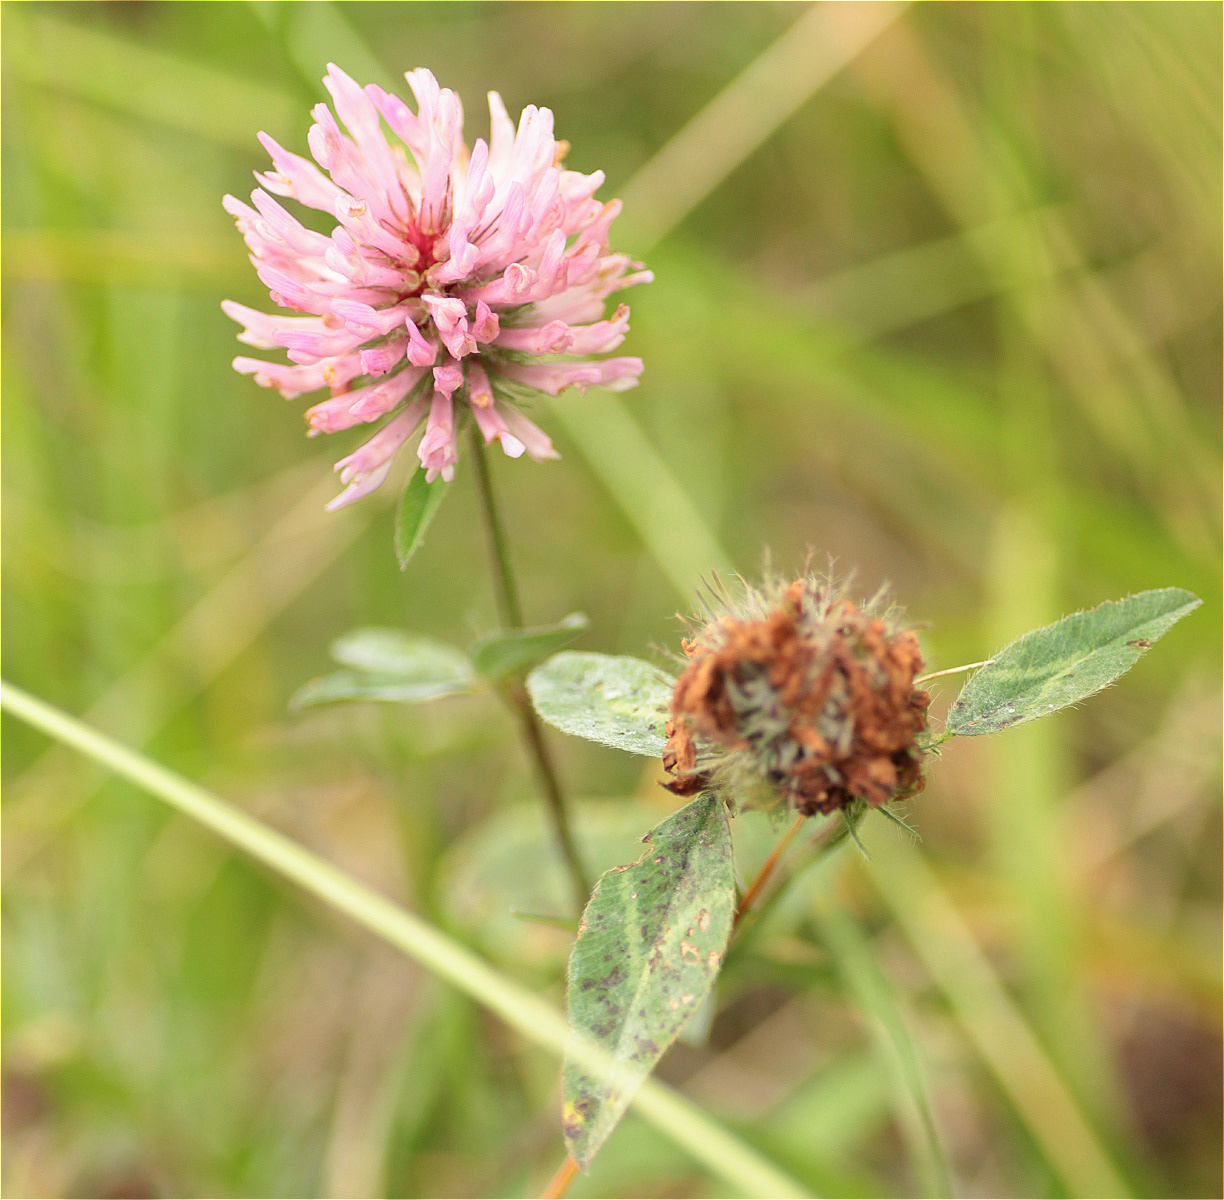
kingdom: Plantae
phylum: Tracheophyta
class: Magnoliopsida
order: Fabales
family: Fabaceae
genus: Trifolium
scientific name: Trifolium pratense
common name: Red clover
